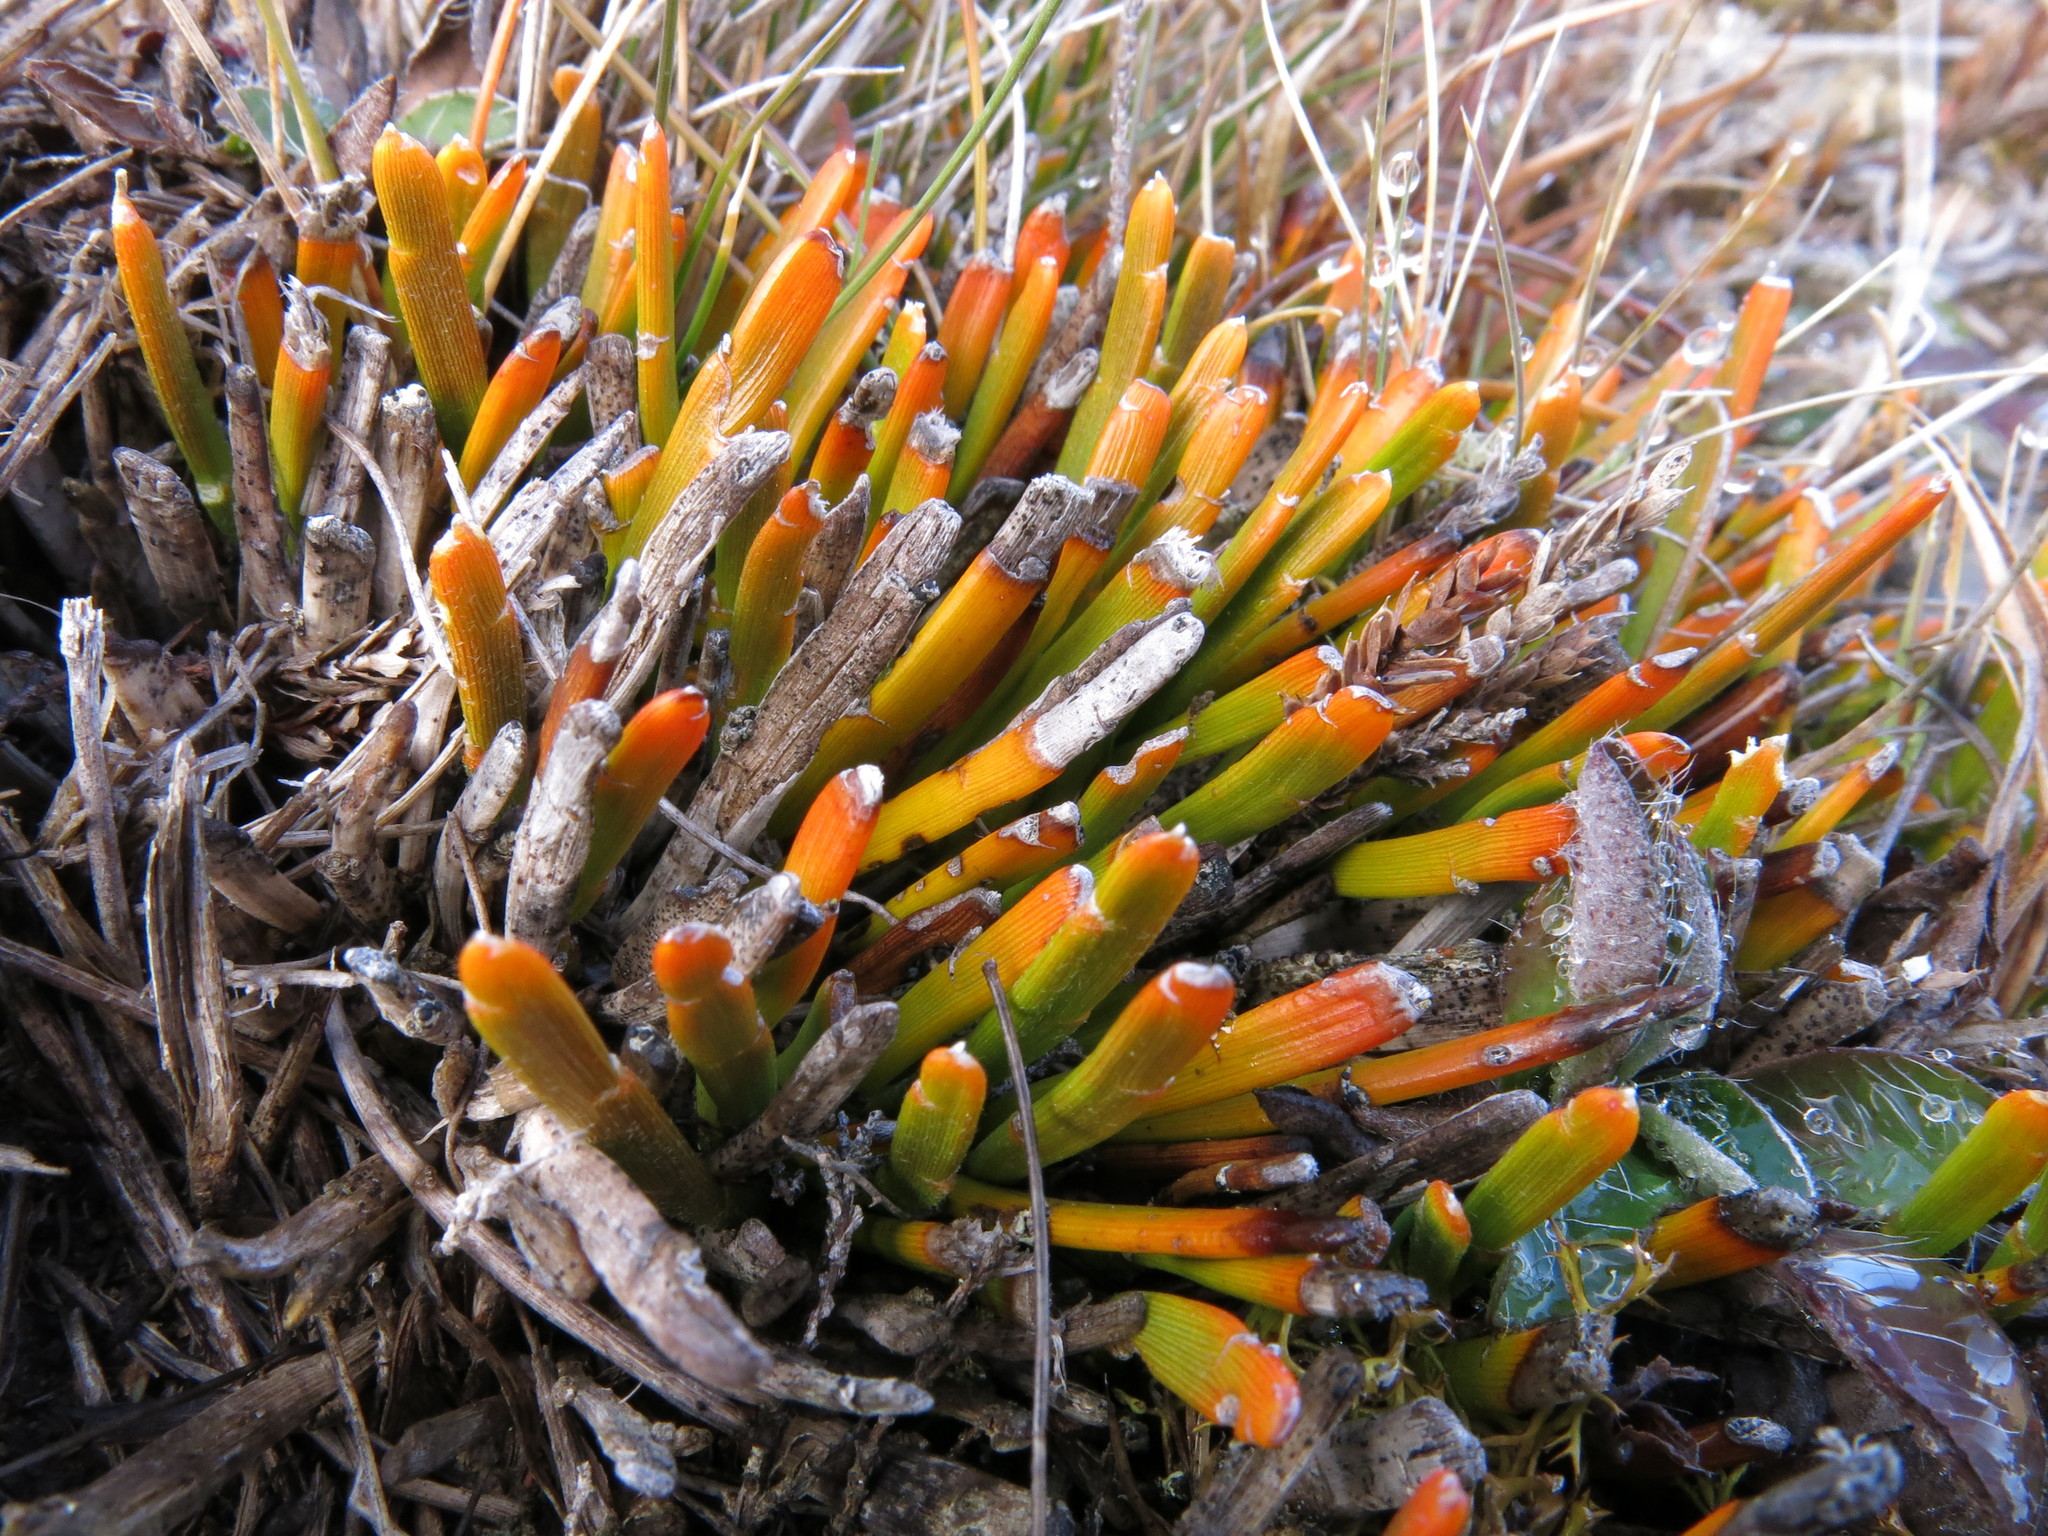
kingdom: Plantae
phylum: Tracheophyta
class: Magnoliopsida
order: Fabales
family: Fabaceae
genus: Carmichaelia
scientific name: Carmichaelia vexillata
